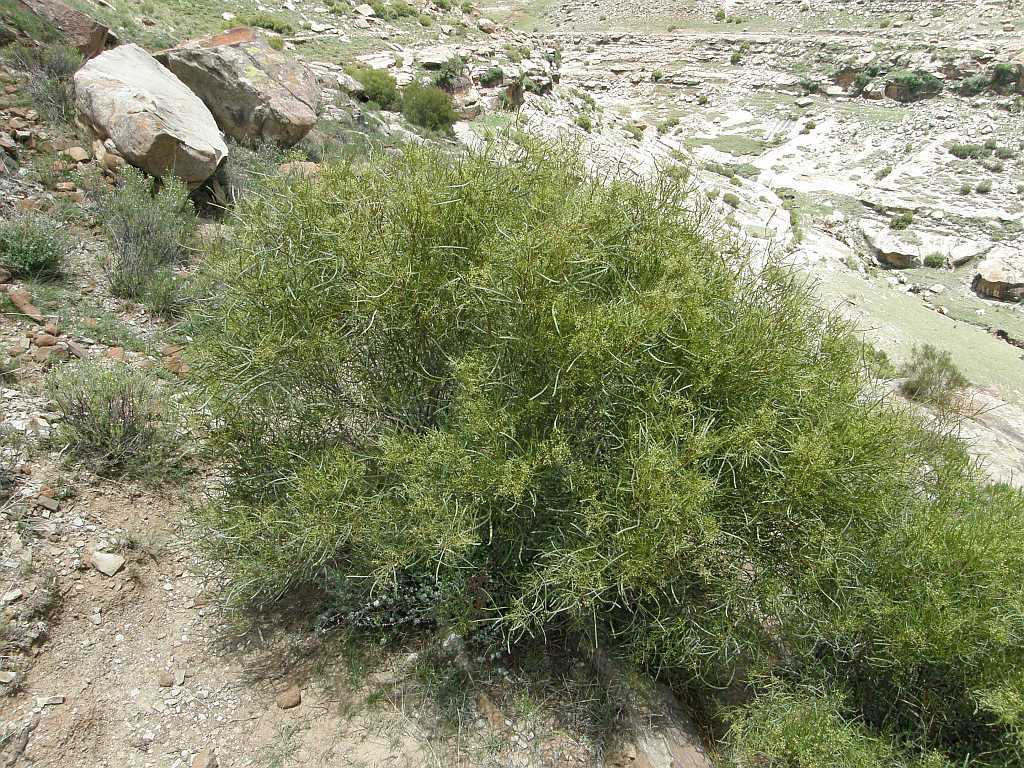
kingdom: Plantae
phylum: Tracheophyta
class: Magnoliopsida
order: Sapindales
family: Anacardiaceae
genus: Searsia
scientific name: Searsia erosa
